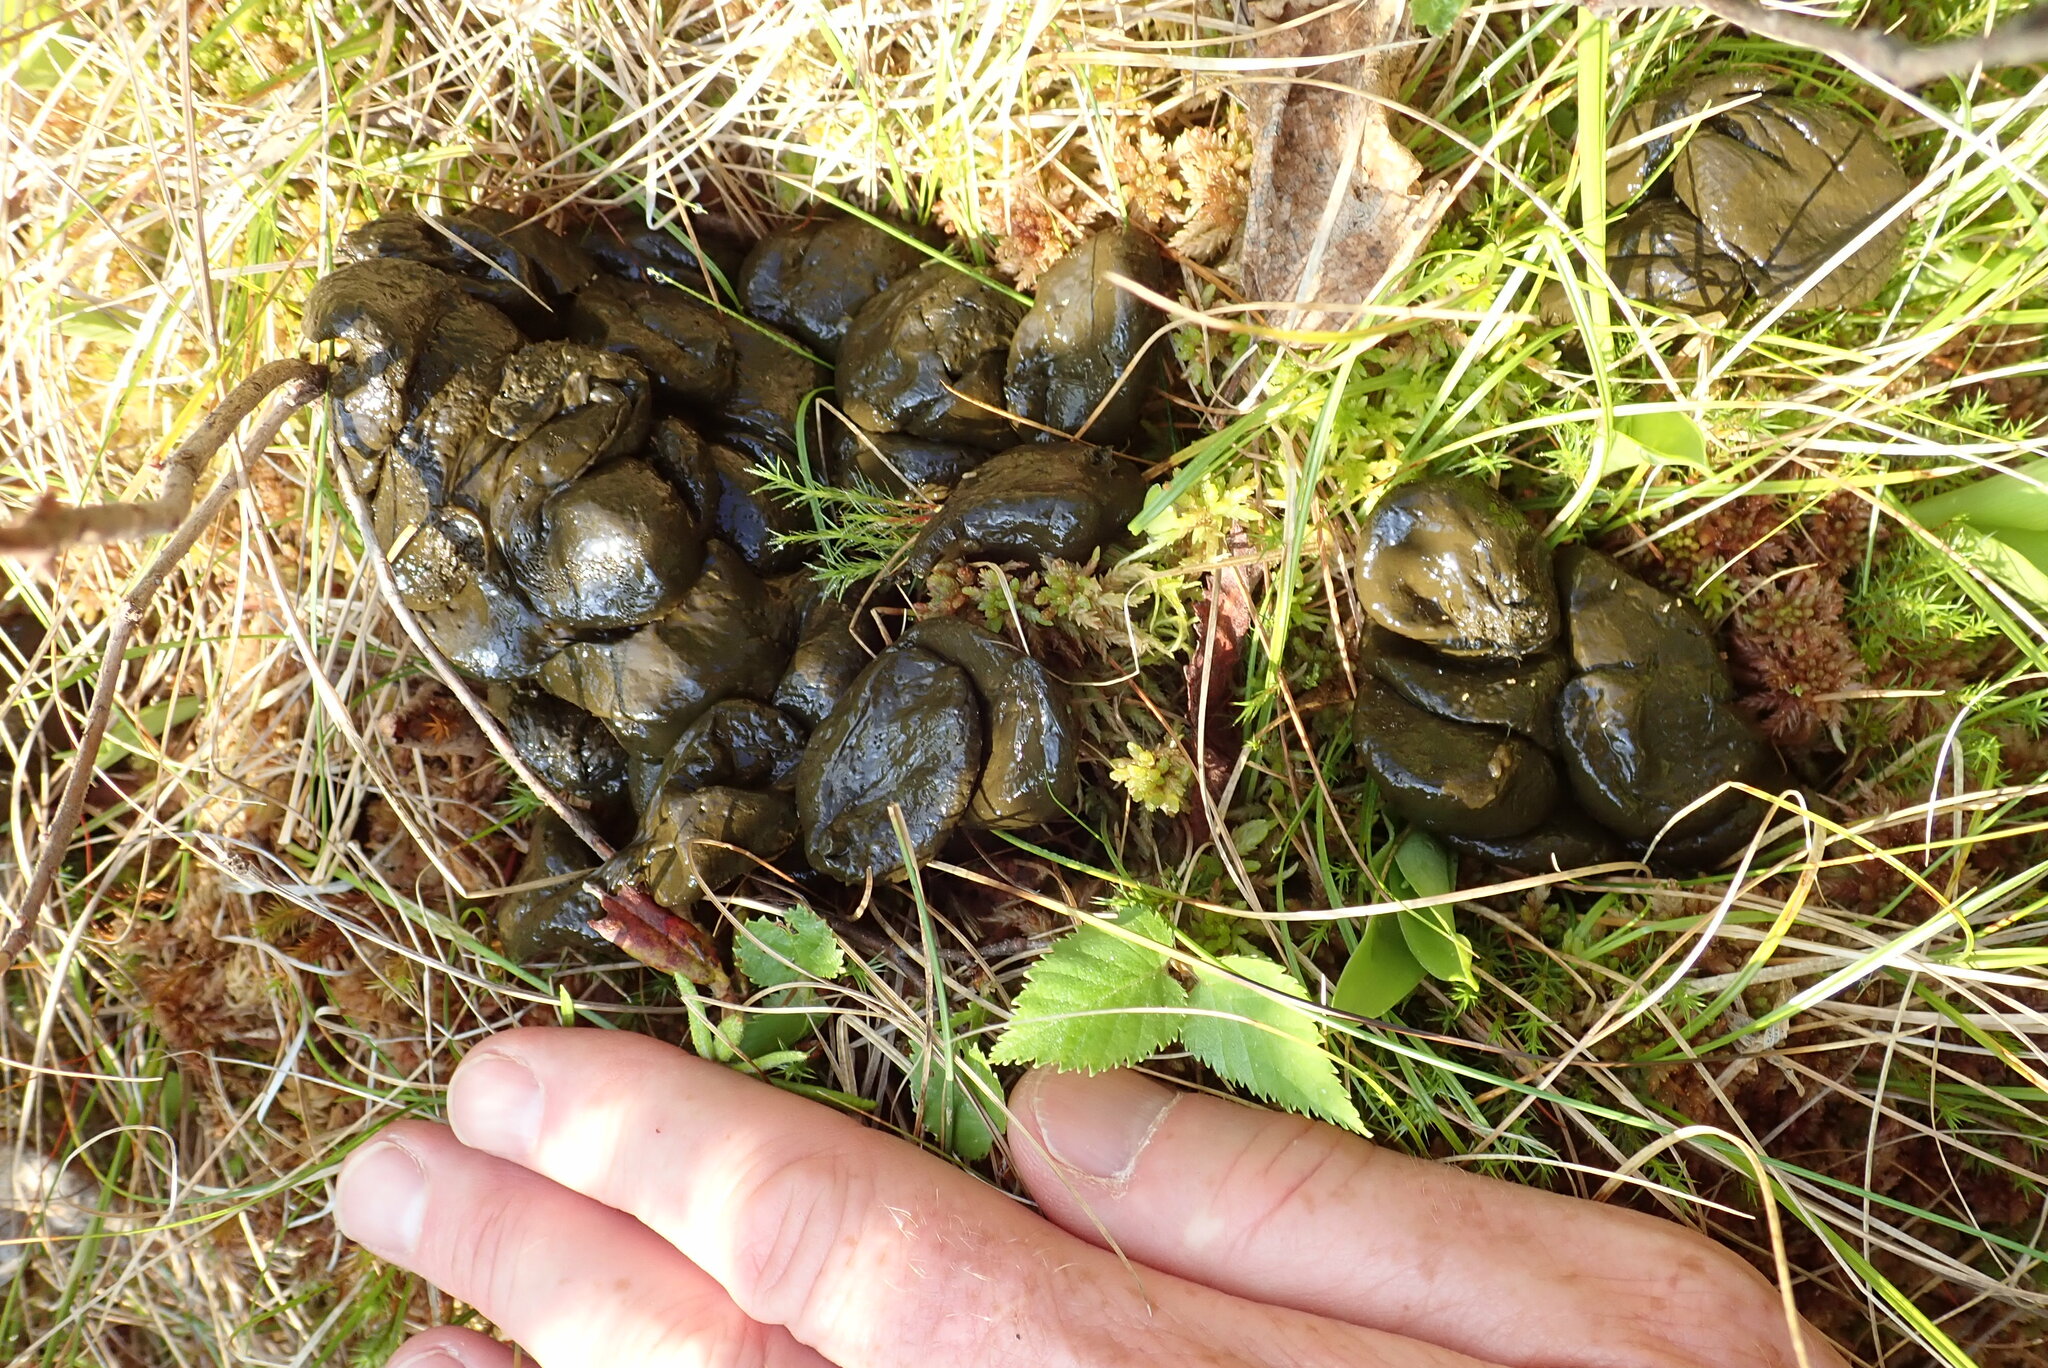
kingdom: Animalia
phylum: Chordata
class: Mammalia
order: Artiodactyla
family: Cervidae
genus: Alces
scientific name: Alces alces
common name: Moose
